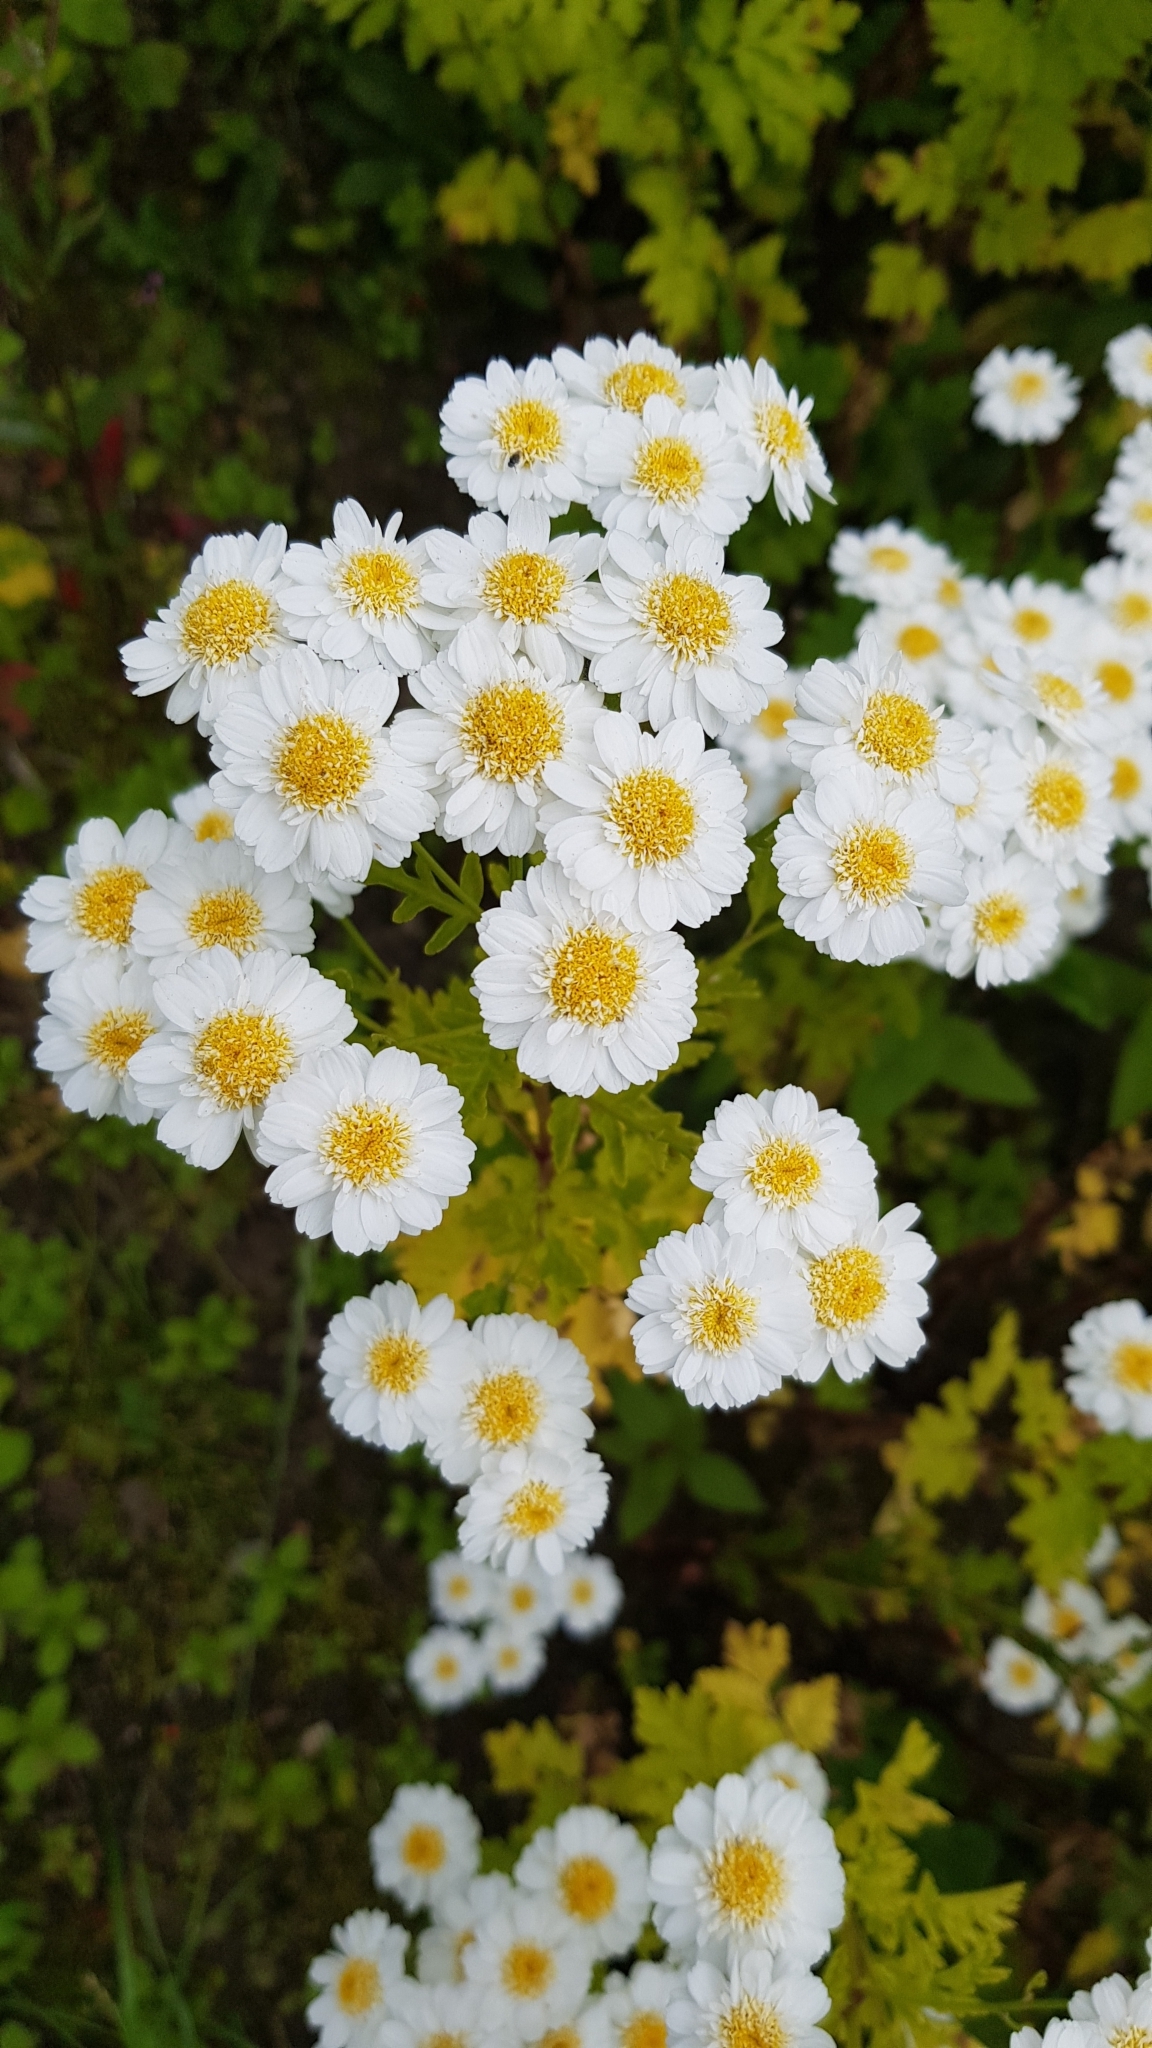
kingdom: Plantae
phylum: Tracheophyta
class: Magnoliopsida
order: Asterales
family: Asteraceae
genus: Tanacetum
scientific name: Tanacetum parthenium
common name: Feverfew
